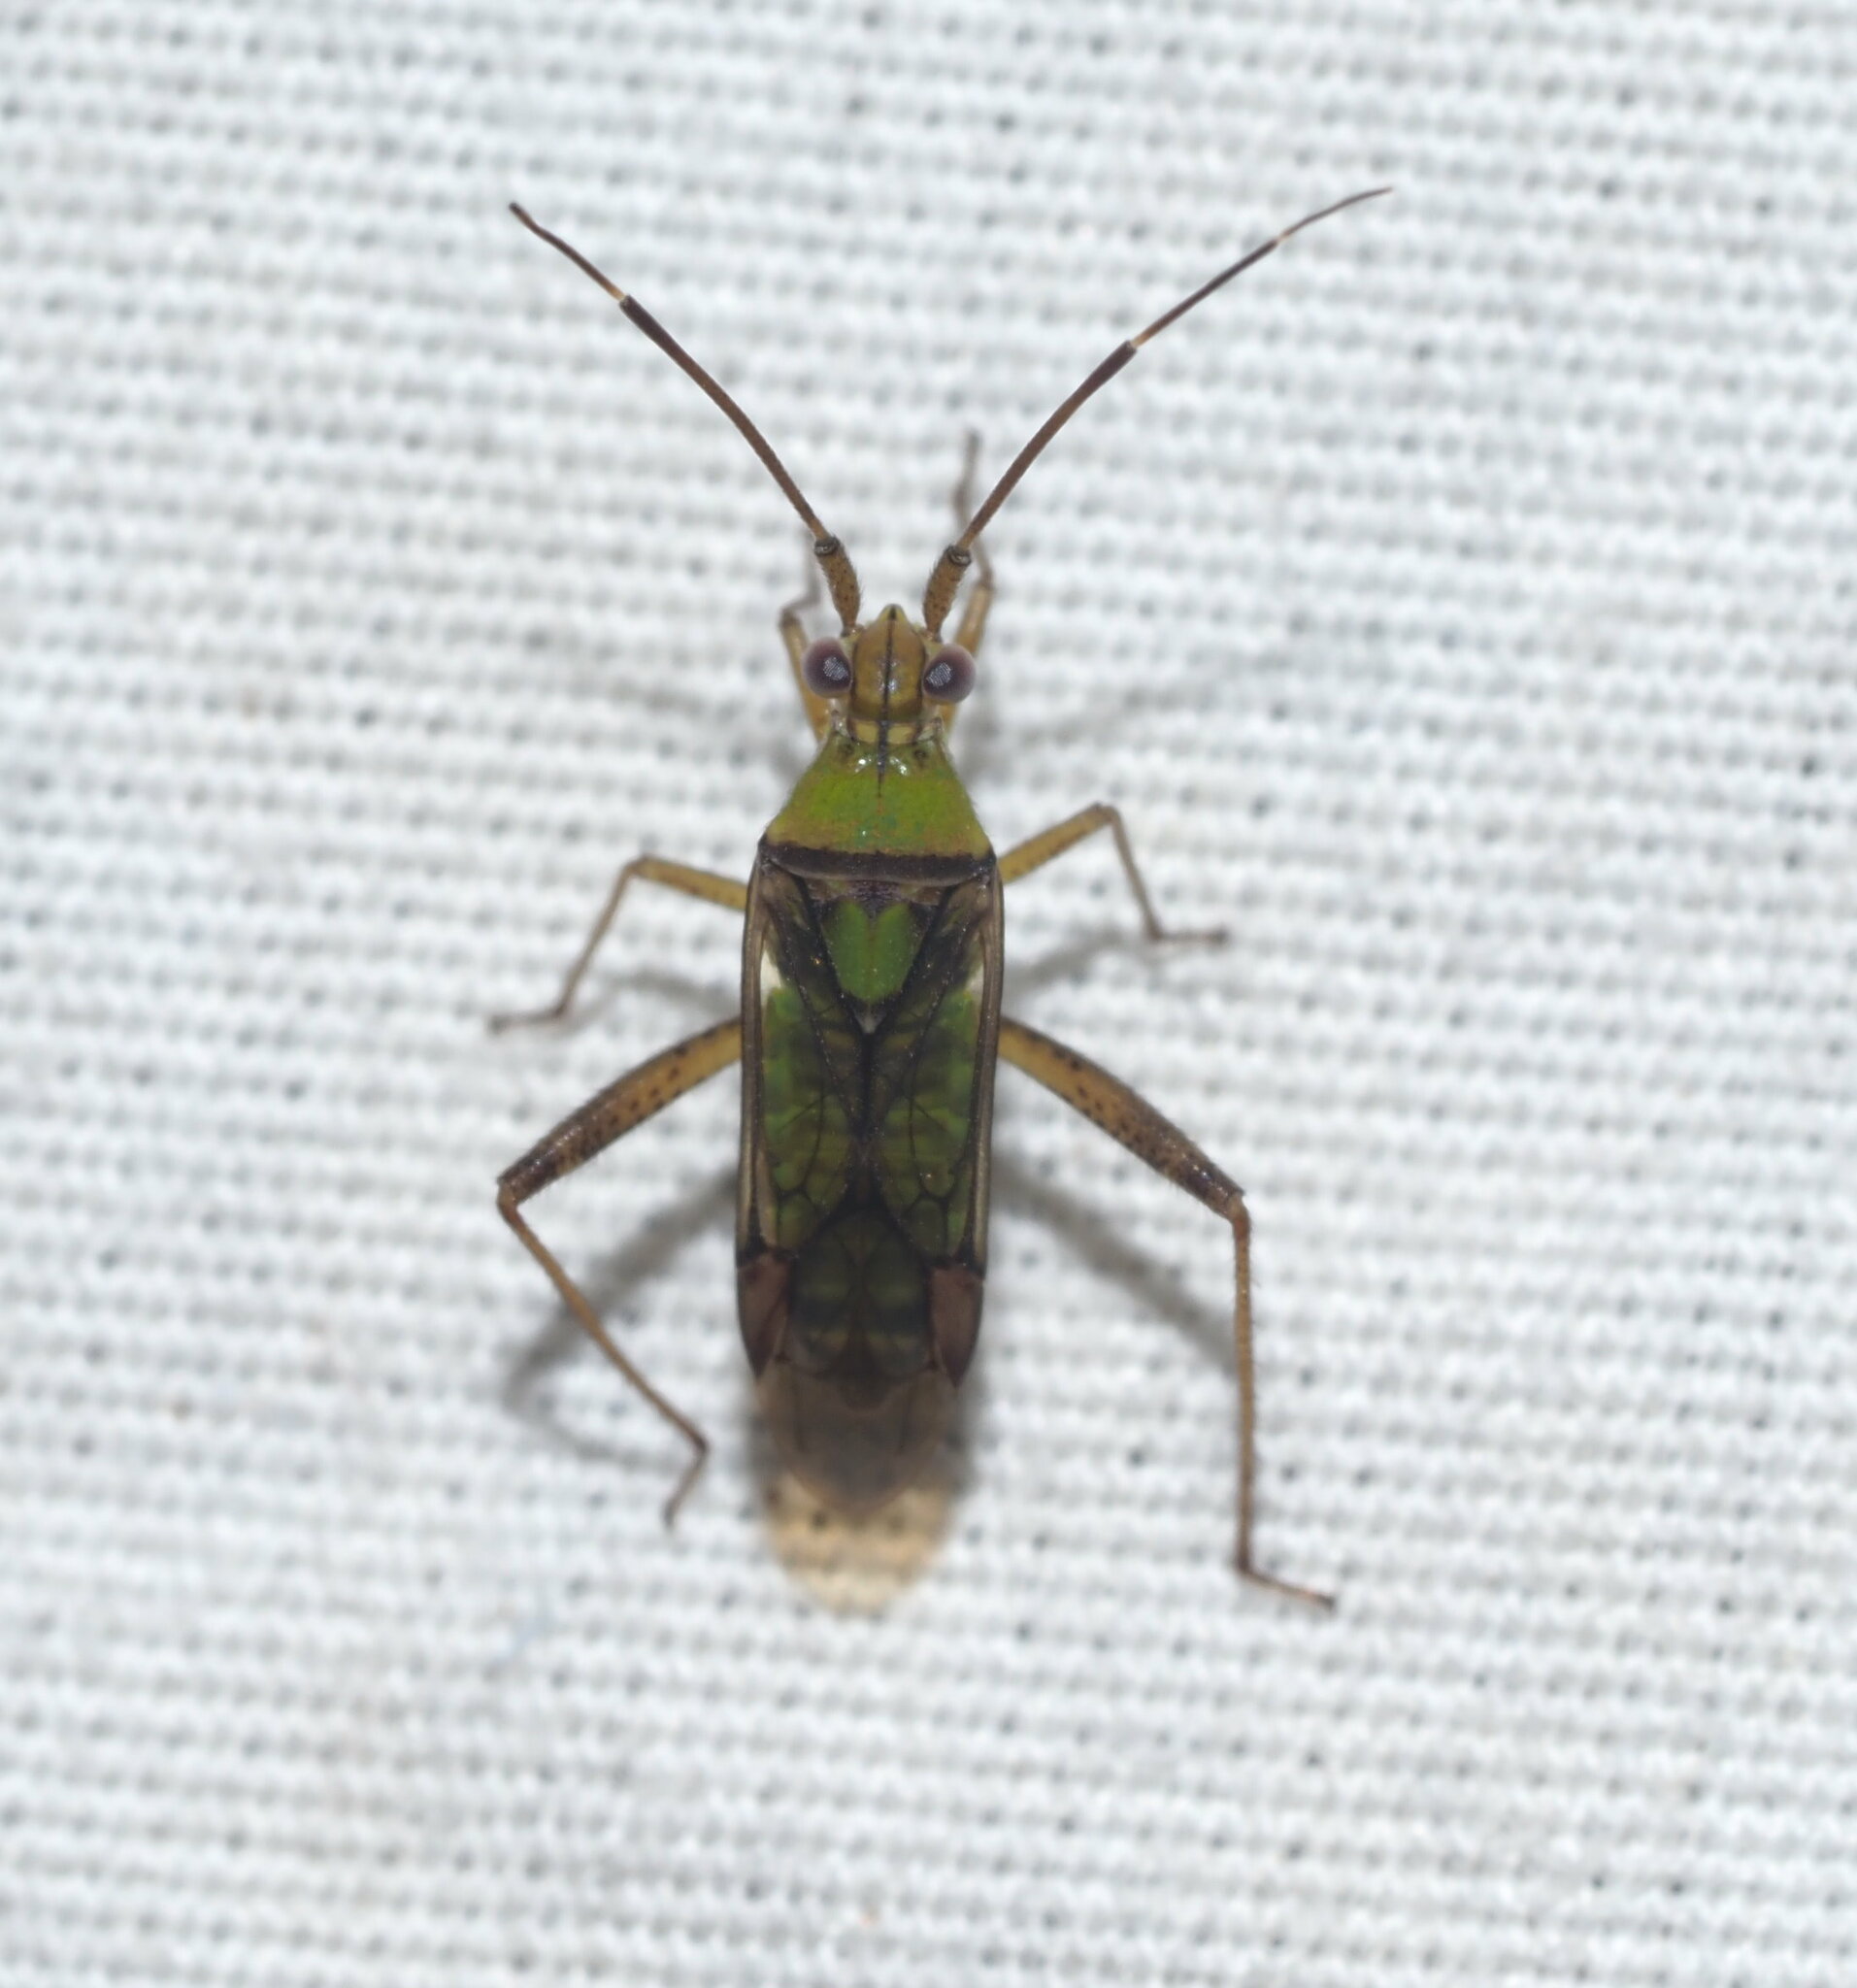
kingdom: Animalia
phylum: Arthropoda
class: Insecta
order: Hemiptera
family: Miridae
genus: Hyalopeplus
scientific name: Hyalopeplus pellucidus
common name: Plant bug
